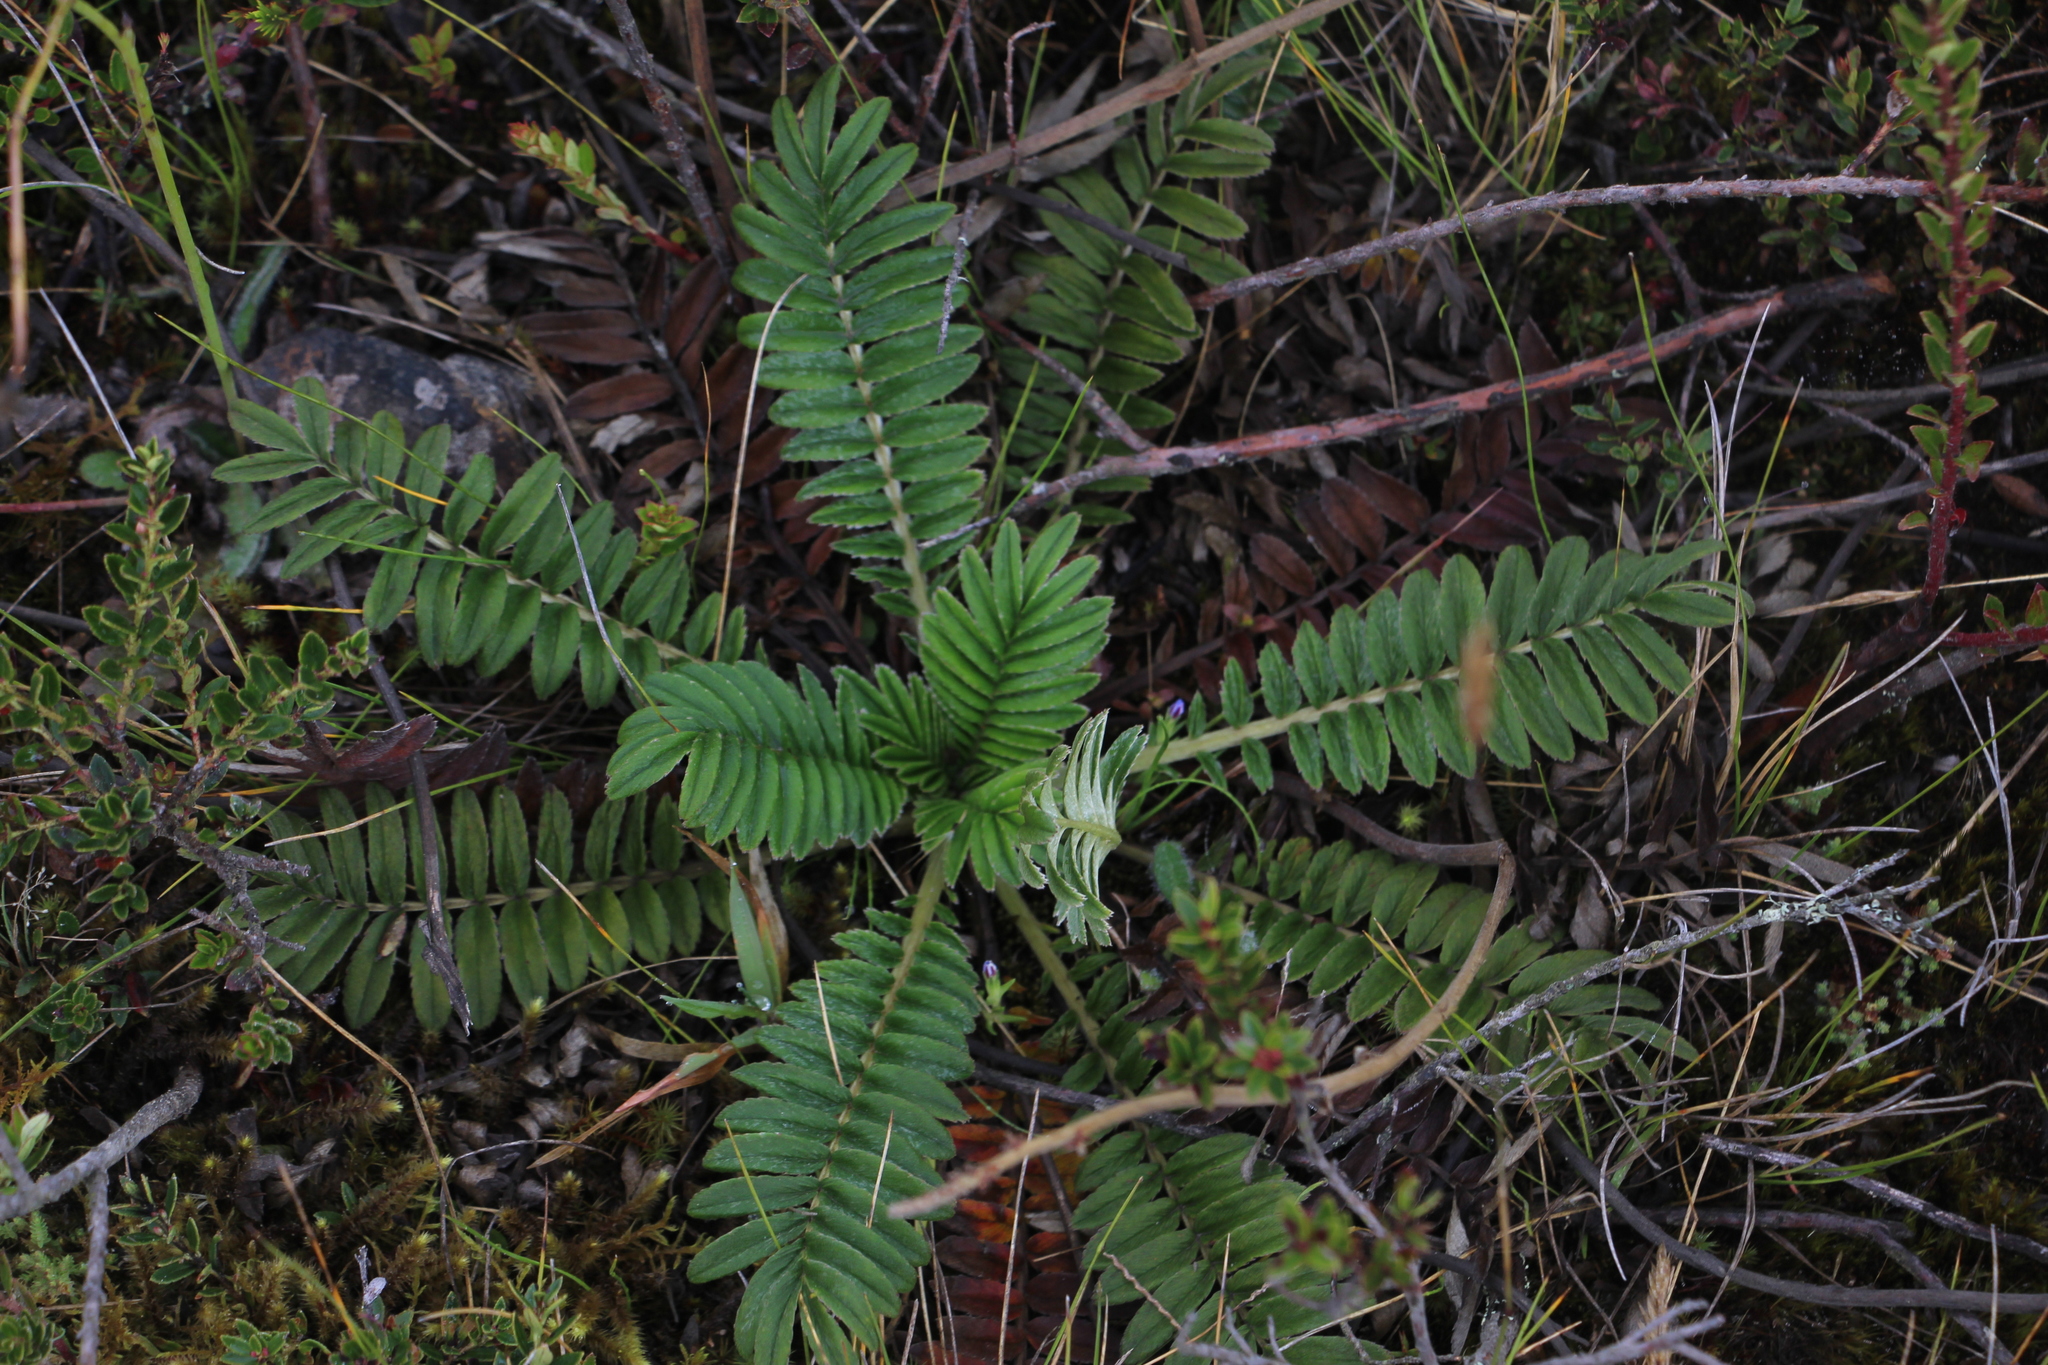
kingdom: Plantae
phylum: Tracheophyta
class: Magnoliopsida
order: Rosales
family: Rosaceae
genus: Acaena
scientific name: Acaena cylindristachya
